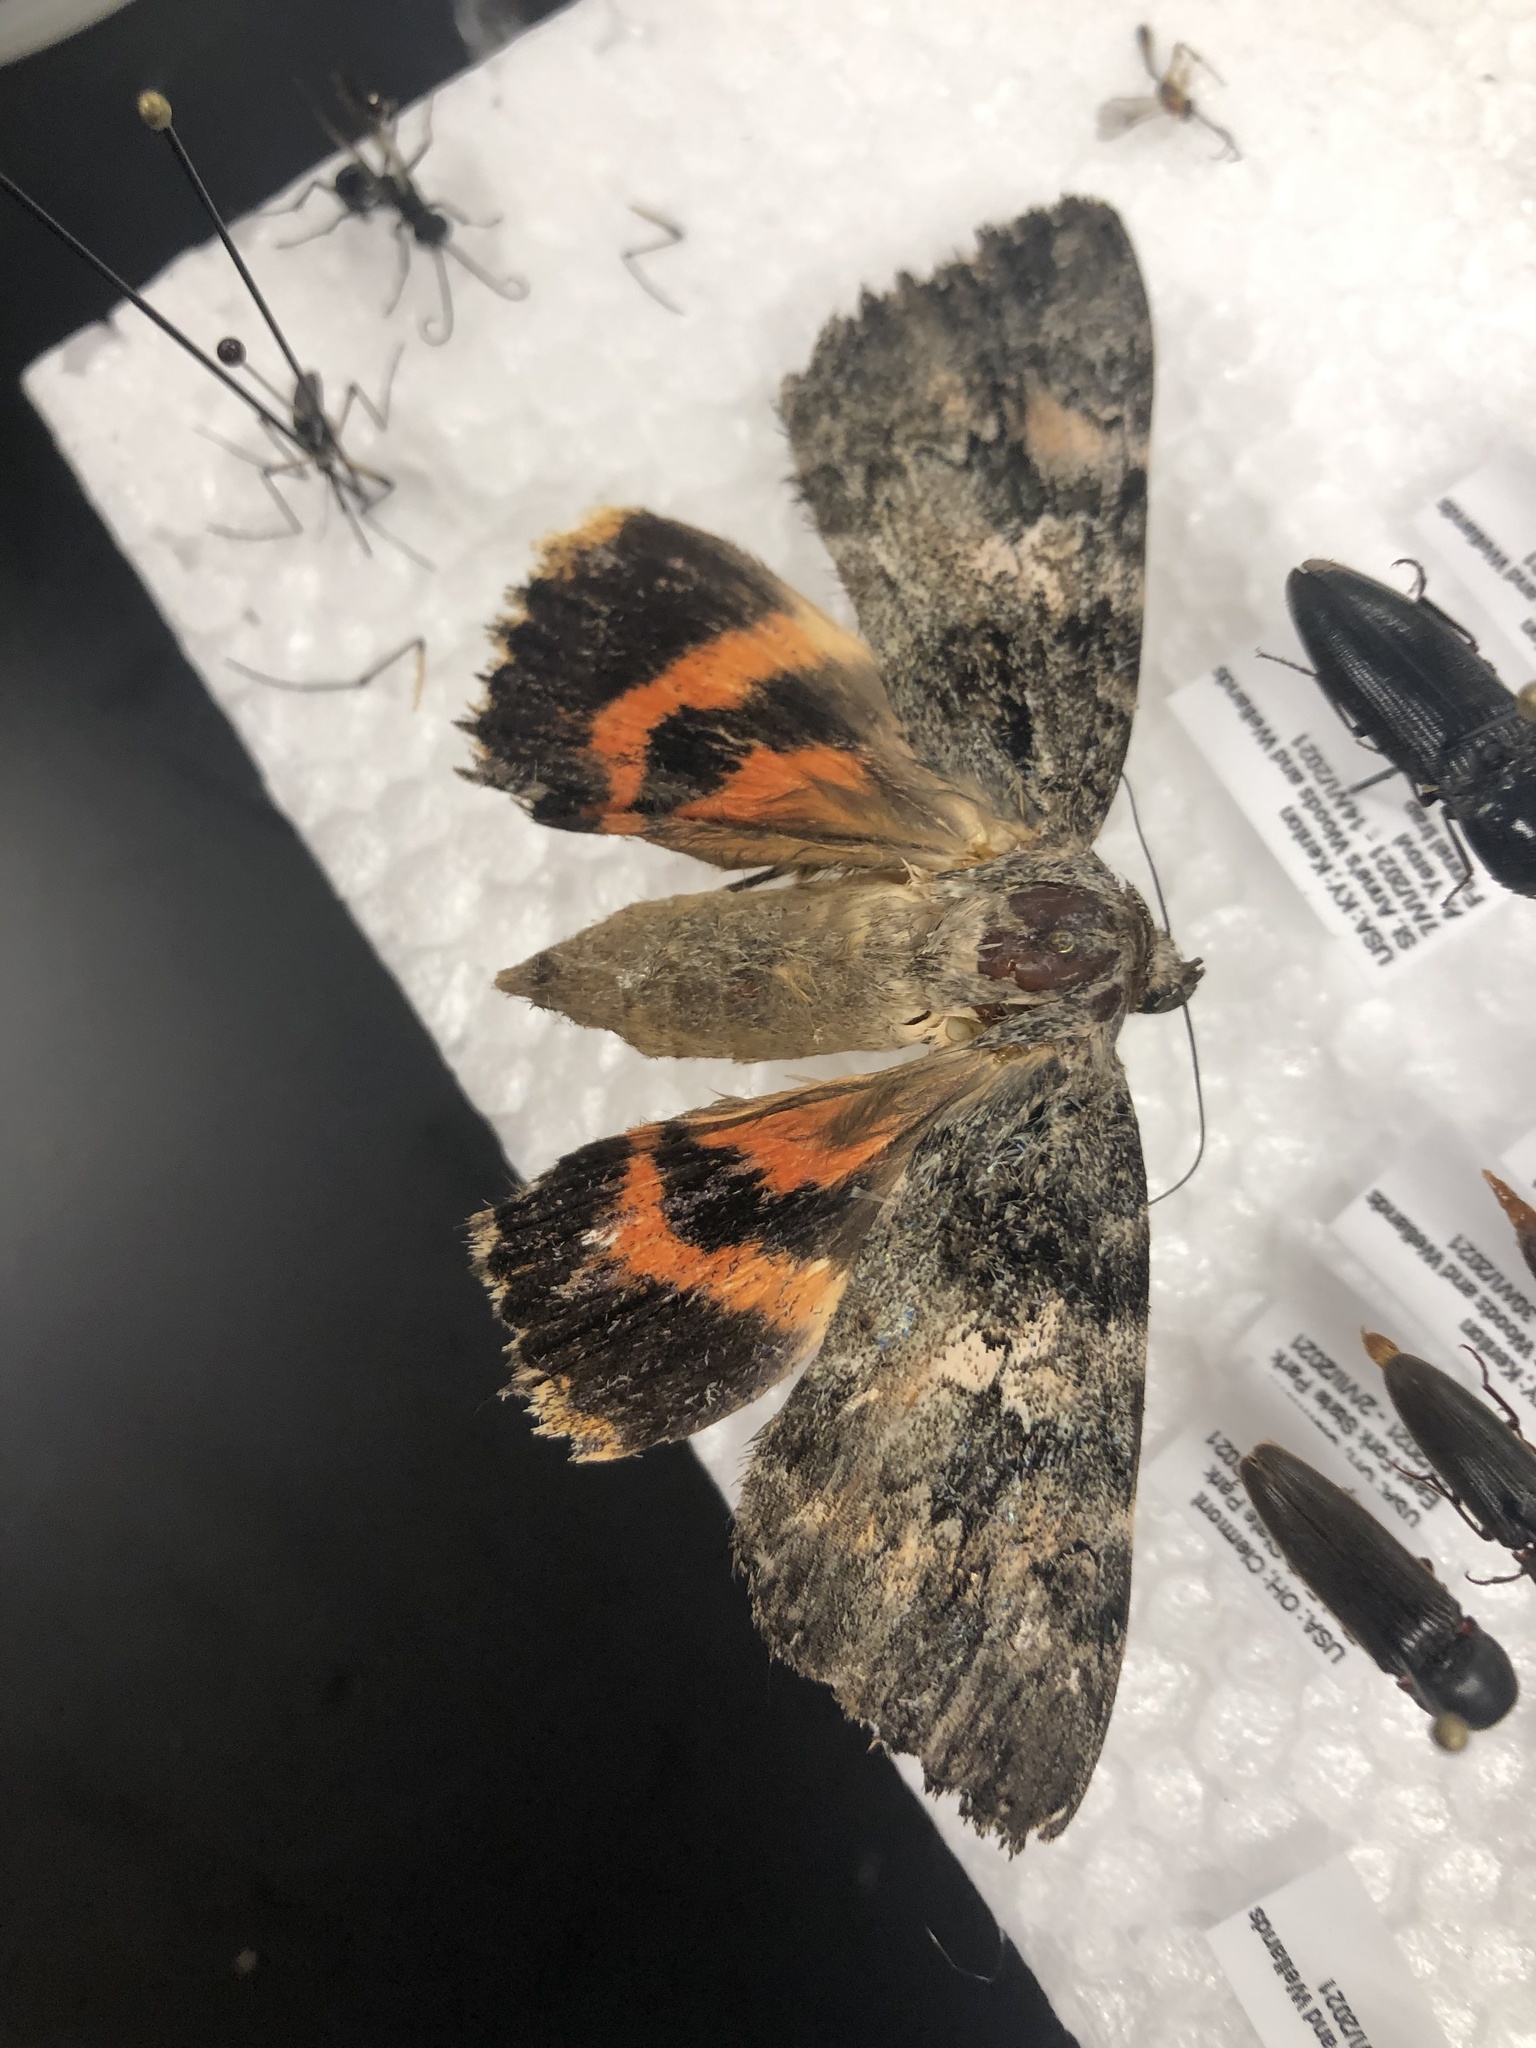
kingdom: Animalia
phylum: Arthropoda
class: Insecta
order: Lepidoptera
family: Erebidae
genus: Catocala
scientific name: Catocala ilia
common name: Ilia underwing
